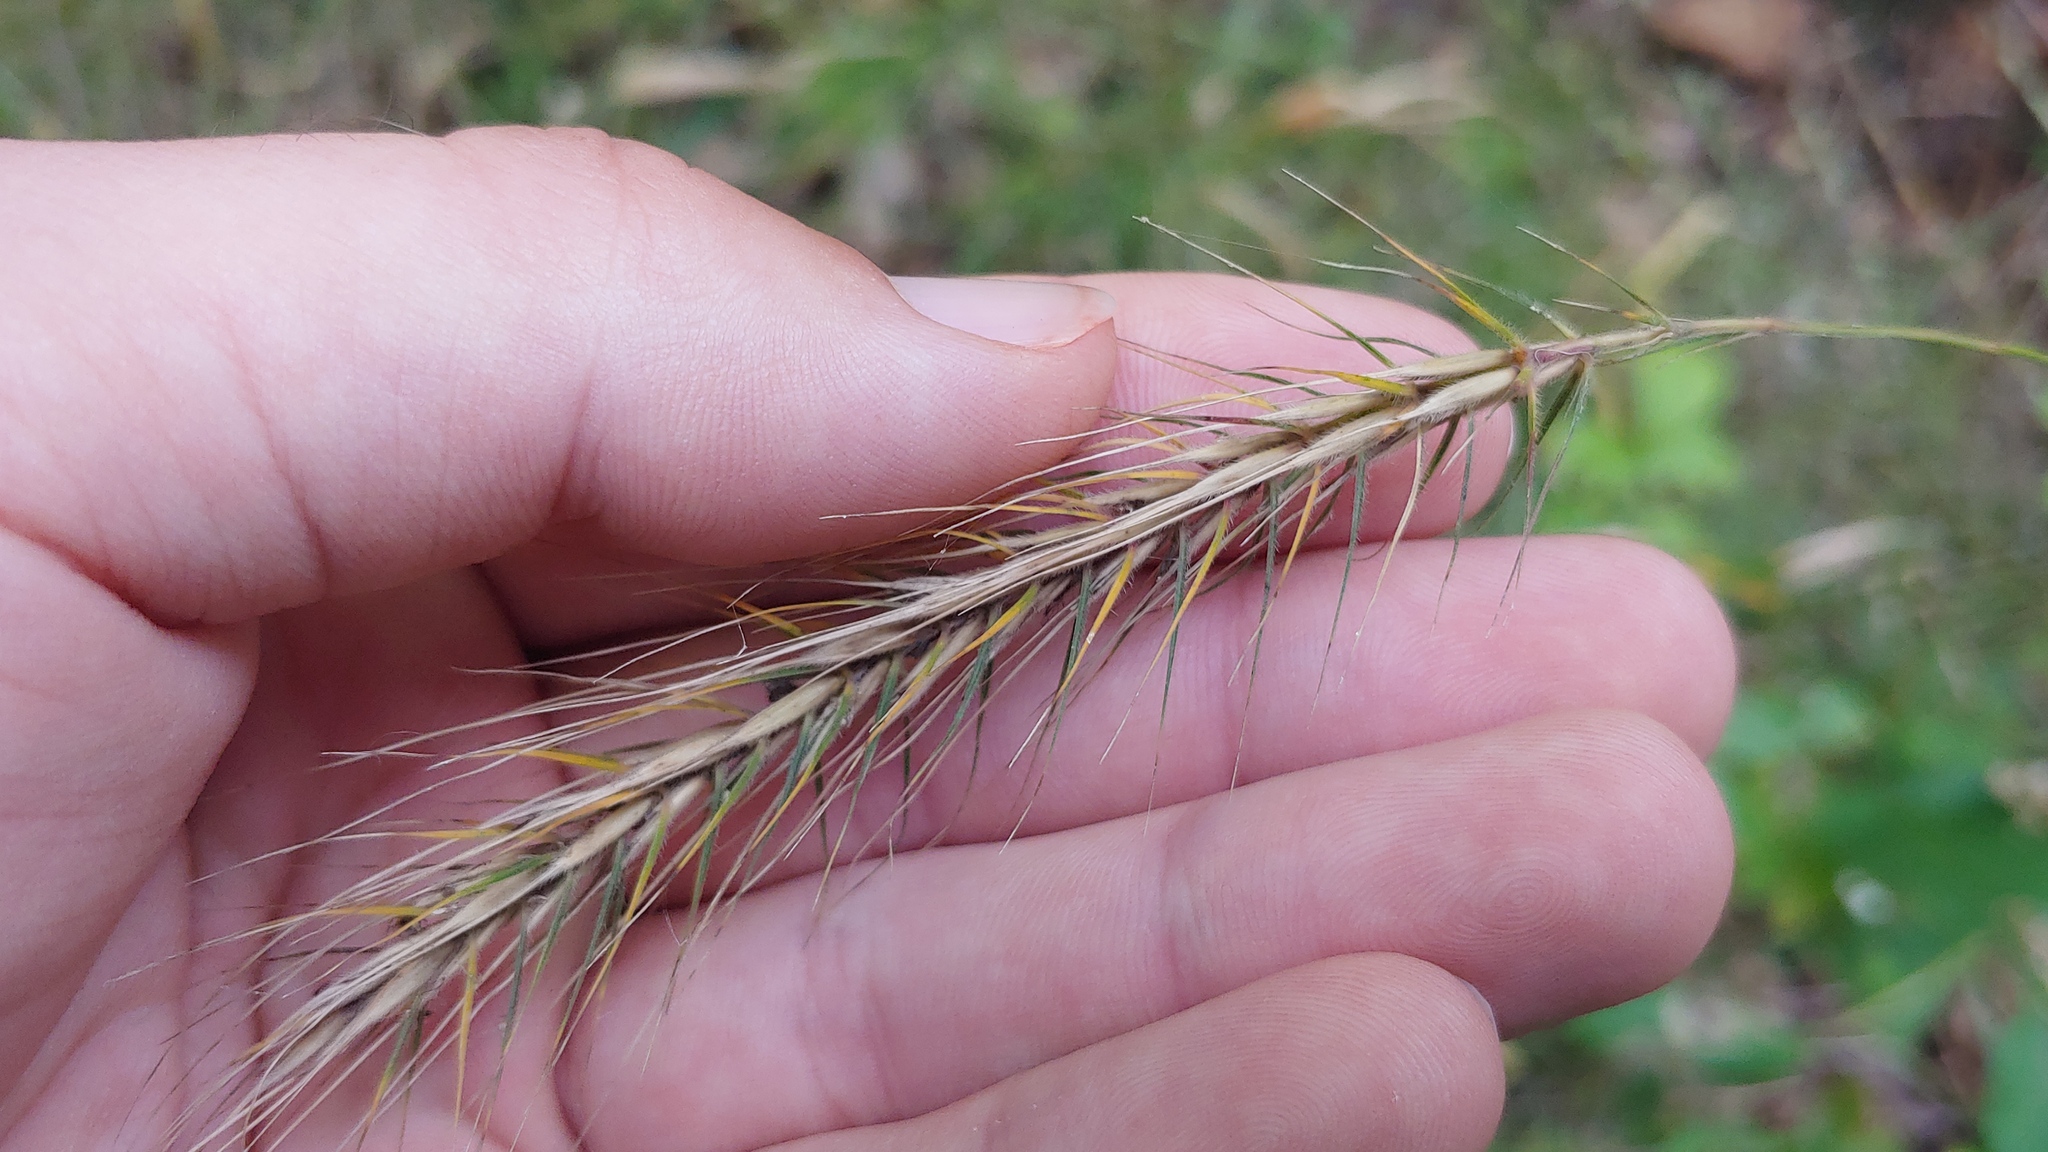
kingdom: Plantae
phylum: Tracheophyta
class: Liliopsida
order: Poales
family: Poaceae
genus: Elymus
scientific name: Elymus villosus
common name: Downy wild rye
